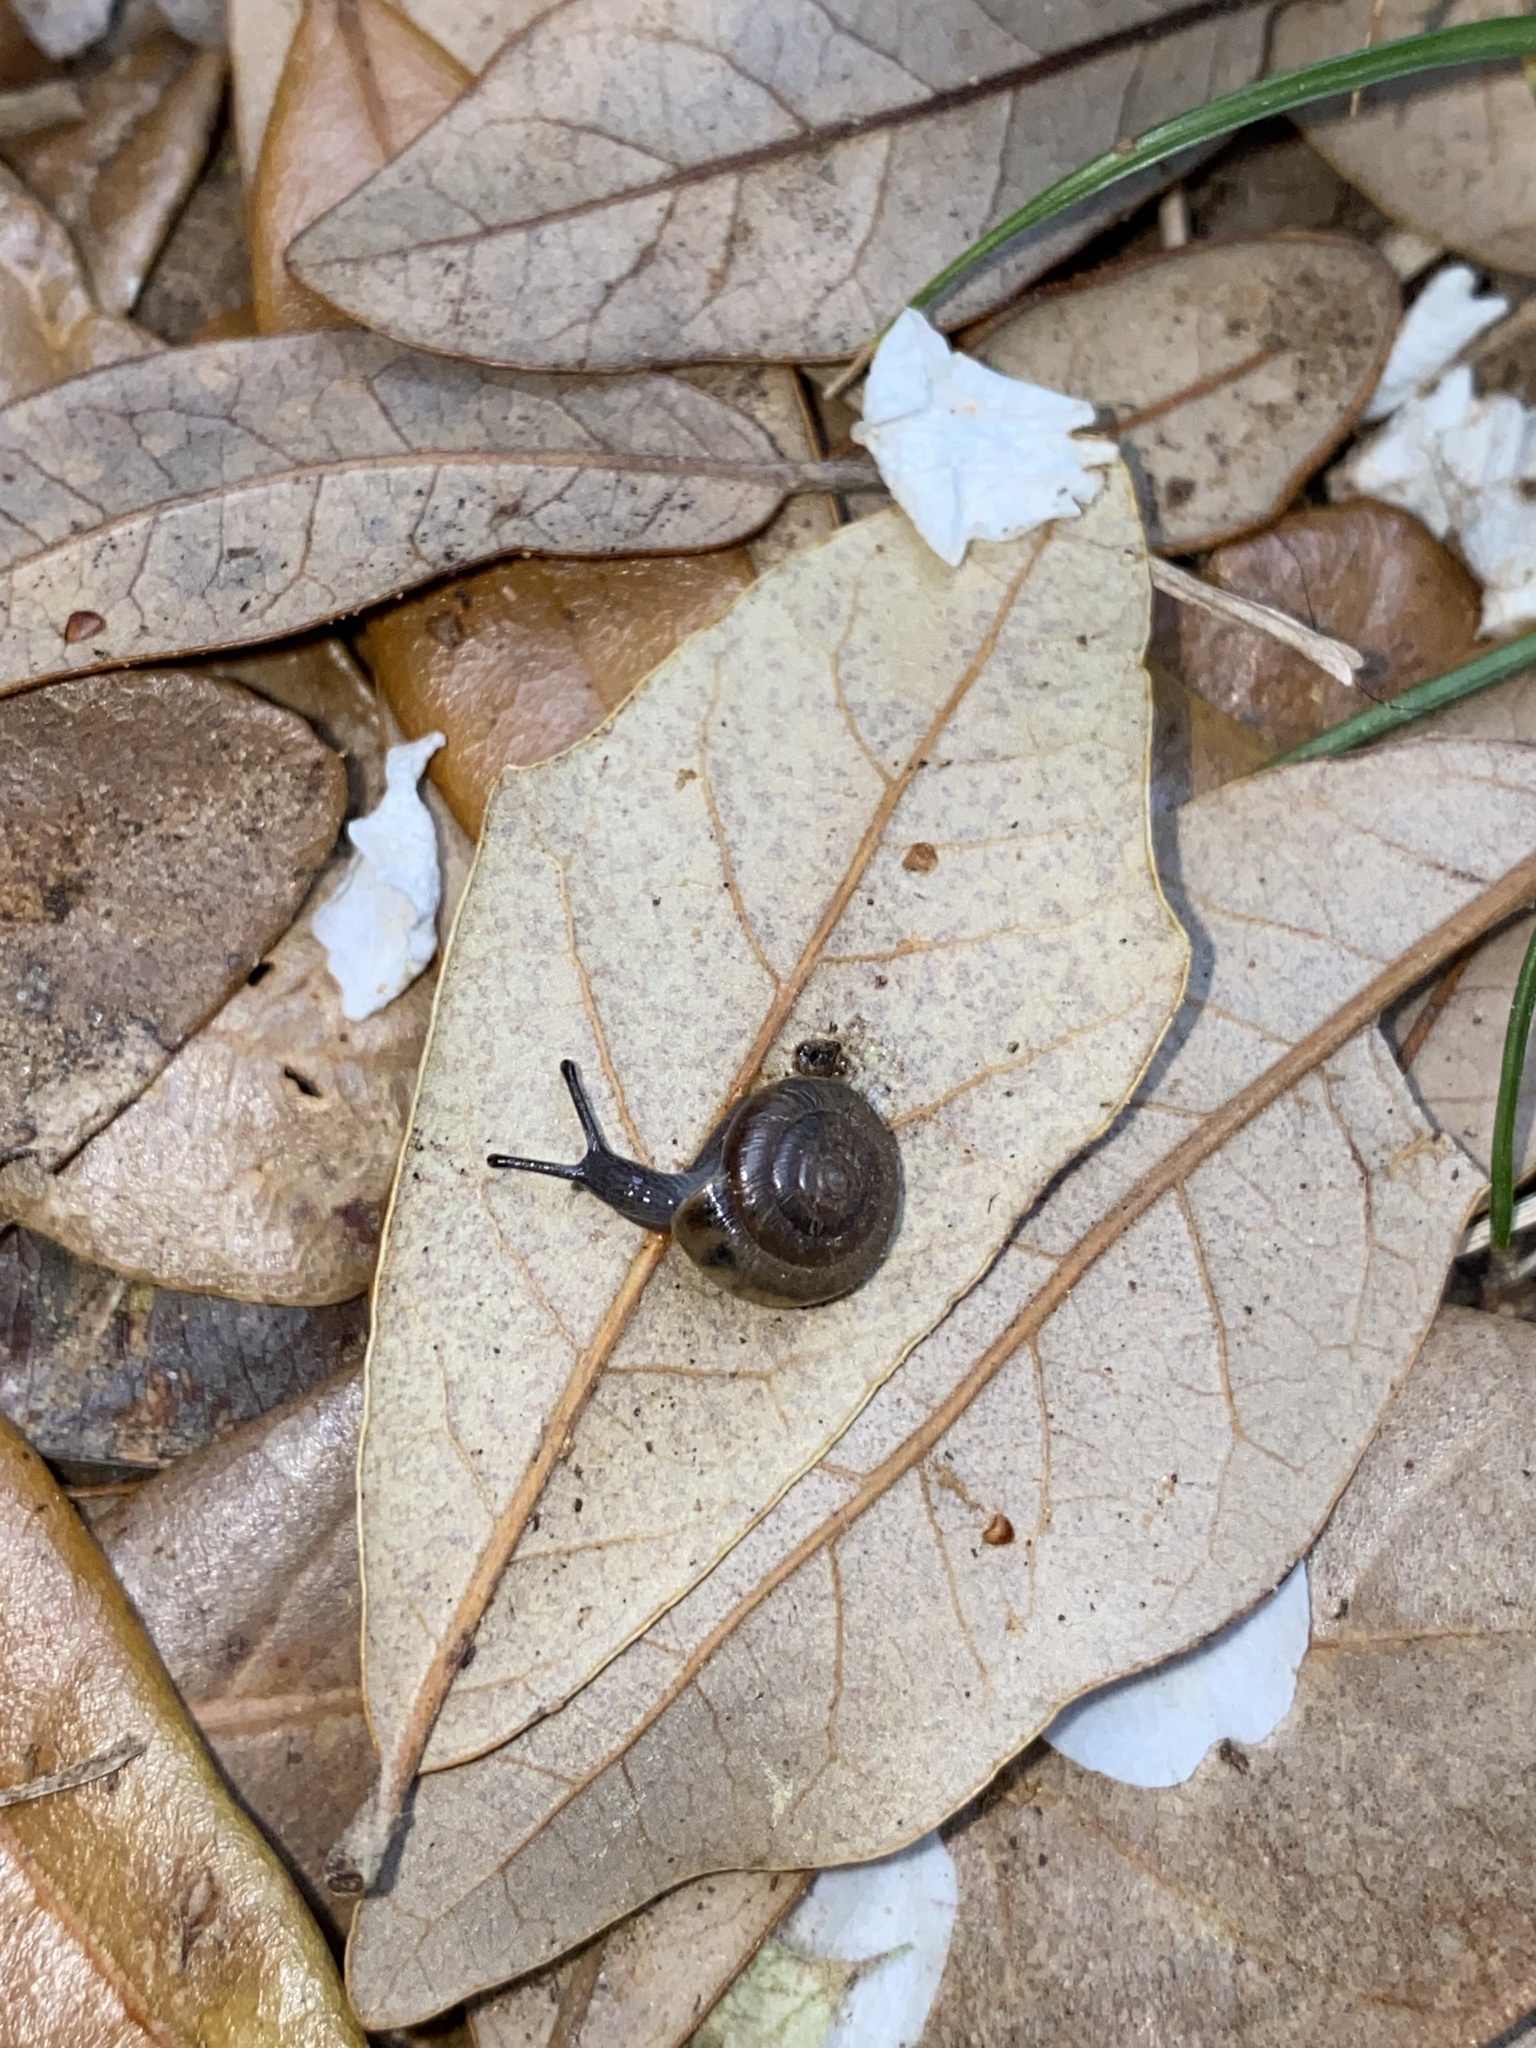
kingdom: Animalia
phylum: Mollusca
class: Gastropoda
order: Stylommatophora
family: Polygyridae
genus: Polygyra
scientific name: Polygyra cereolus
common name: Southern flatcone snail
